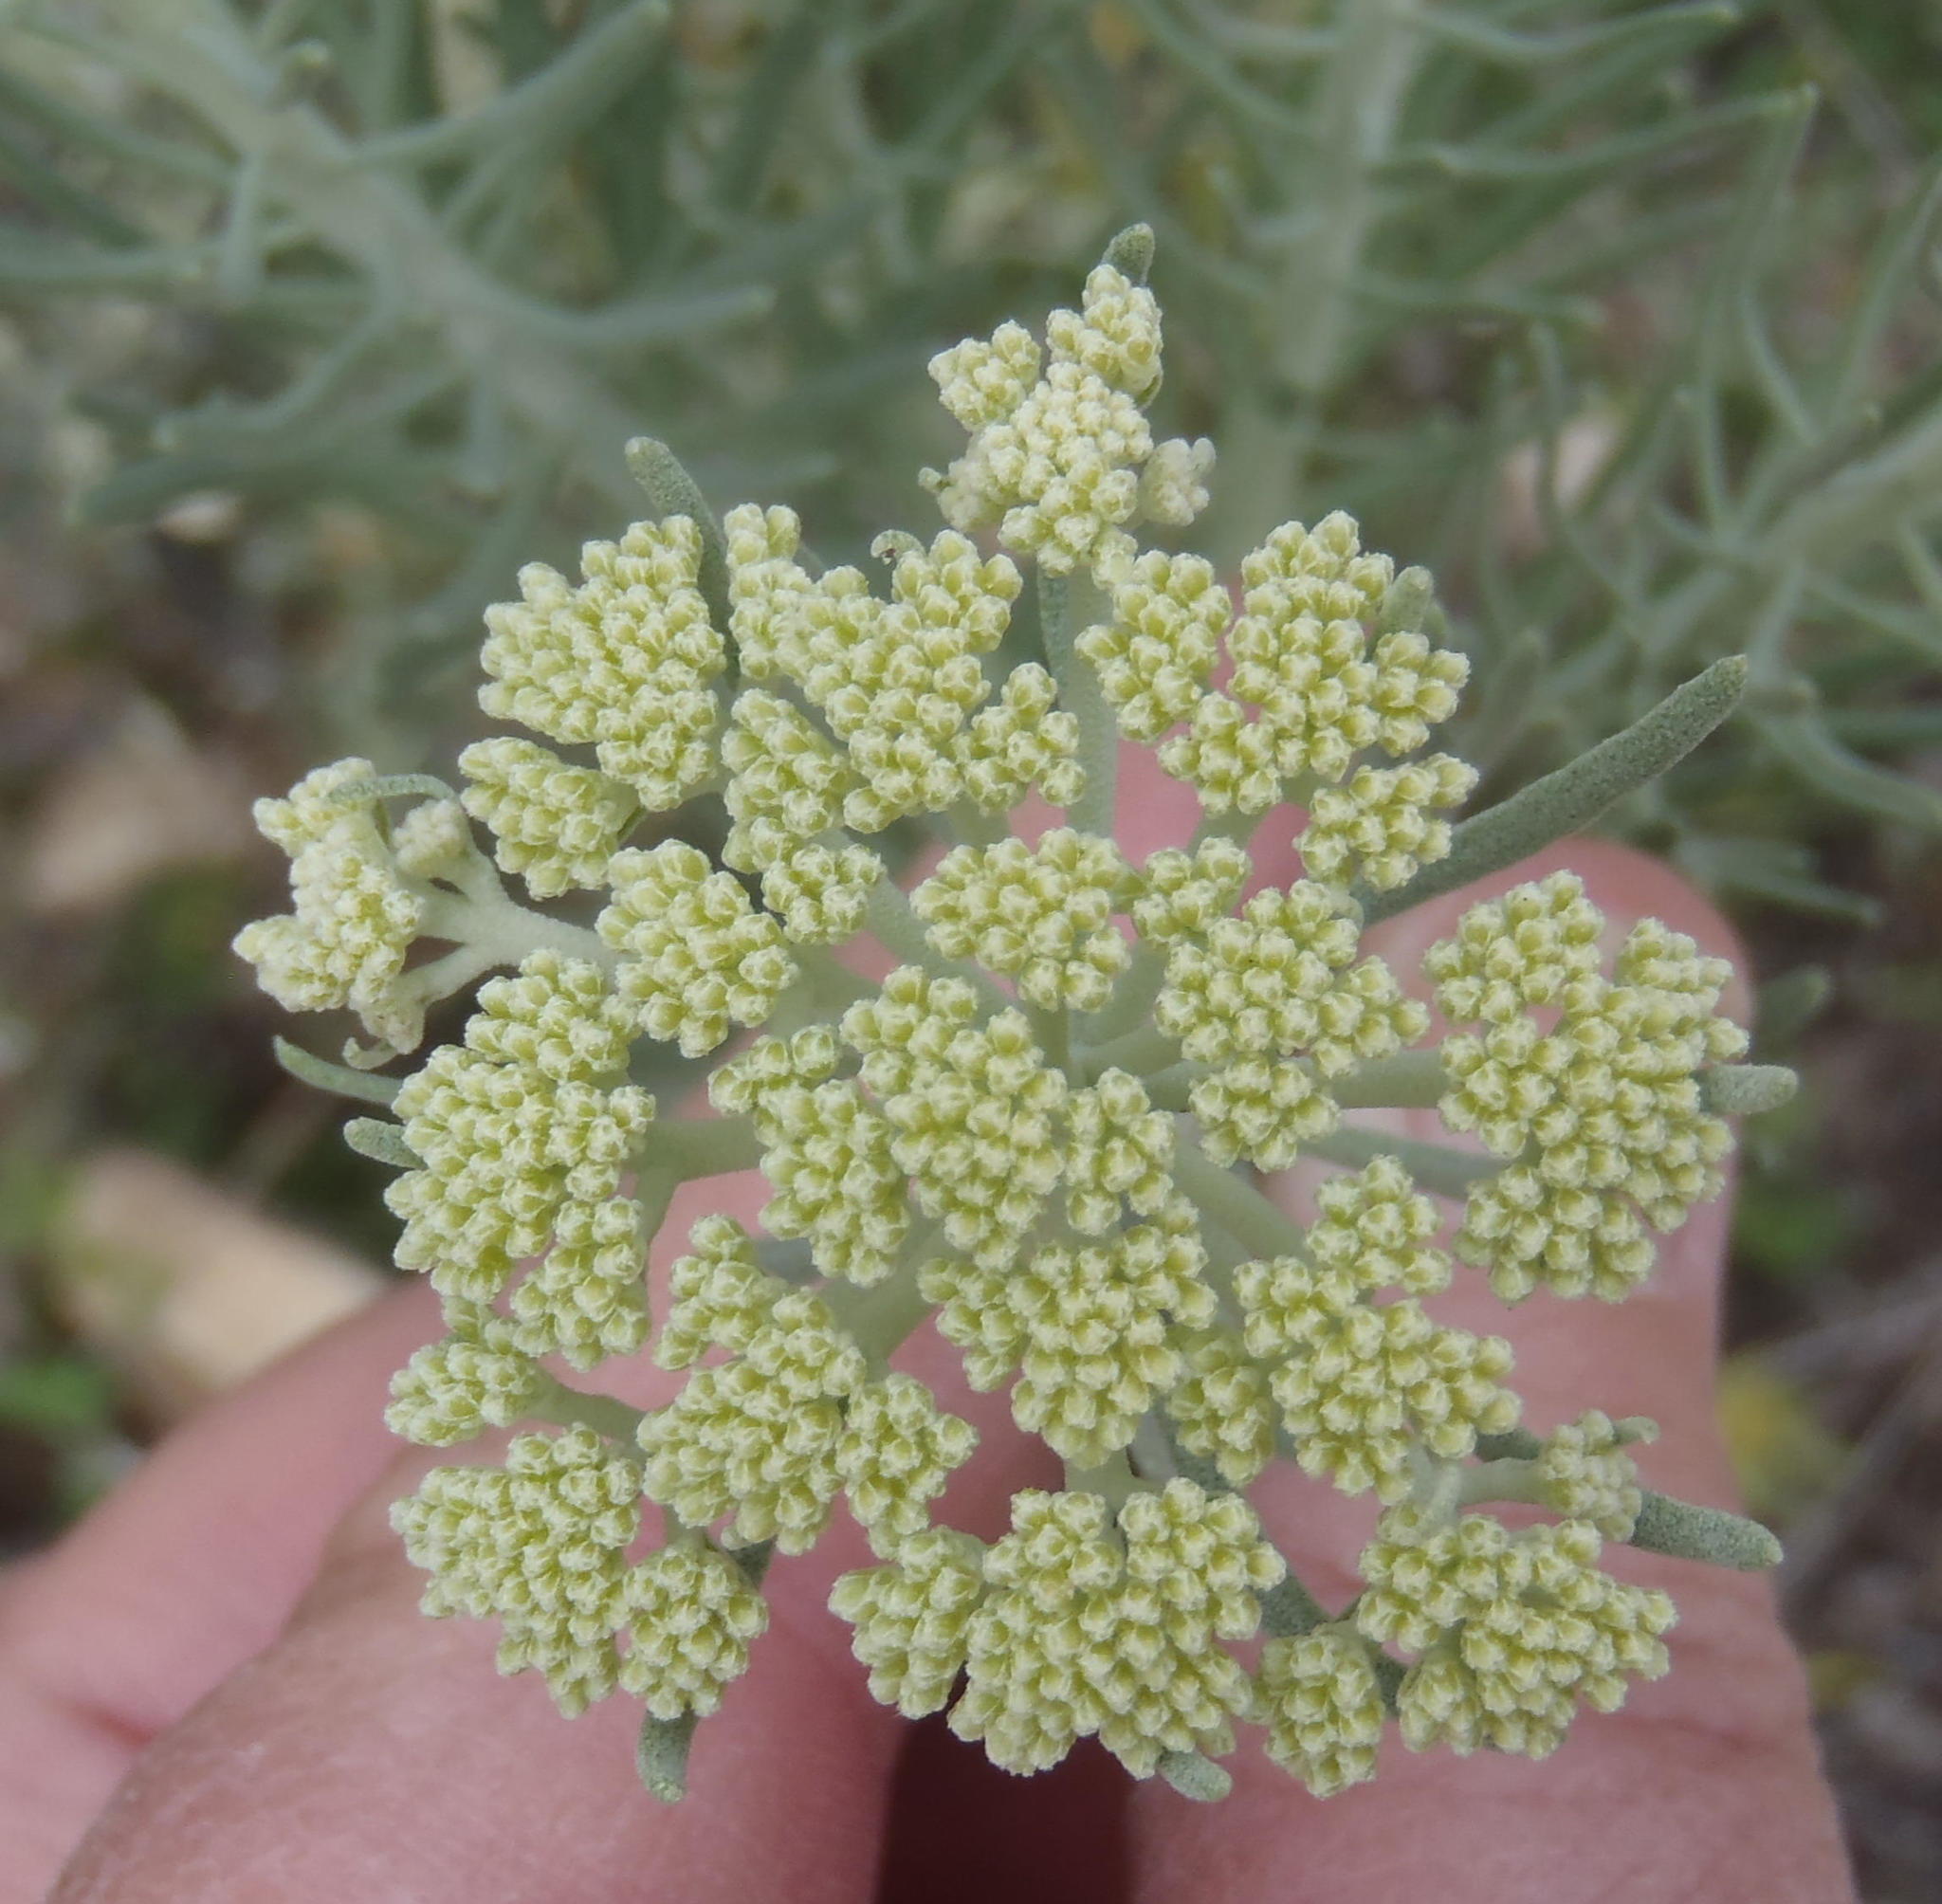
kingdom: Plantae
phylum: Tracheophyta
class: Magnoliopsida
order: Asterales
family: Asteraceae
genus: Athanasia
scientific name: Athanasia tomentosa
